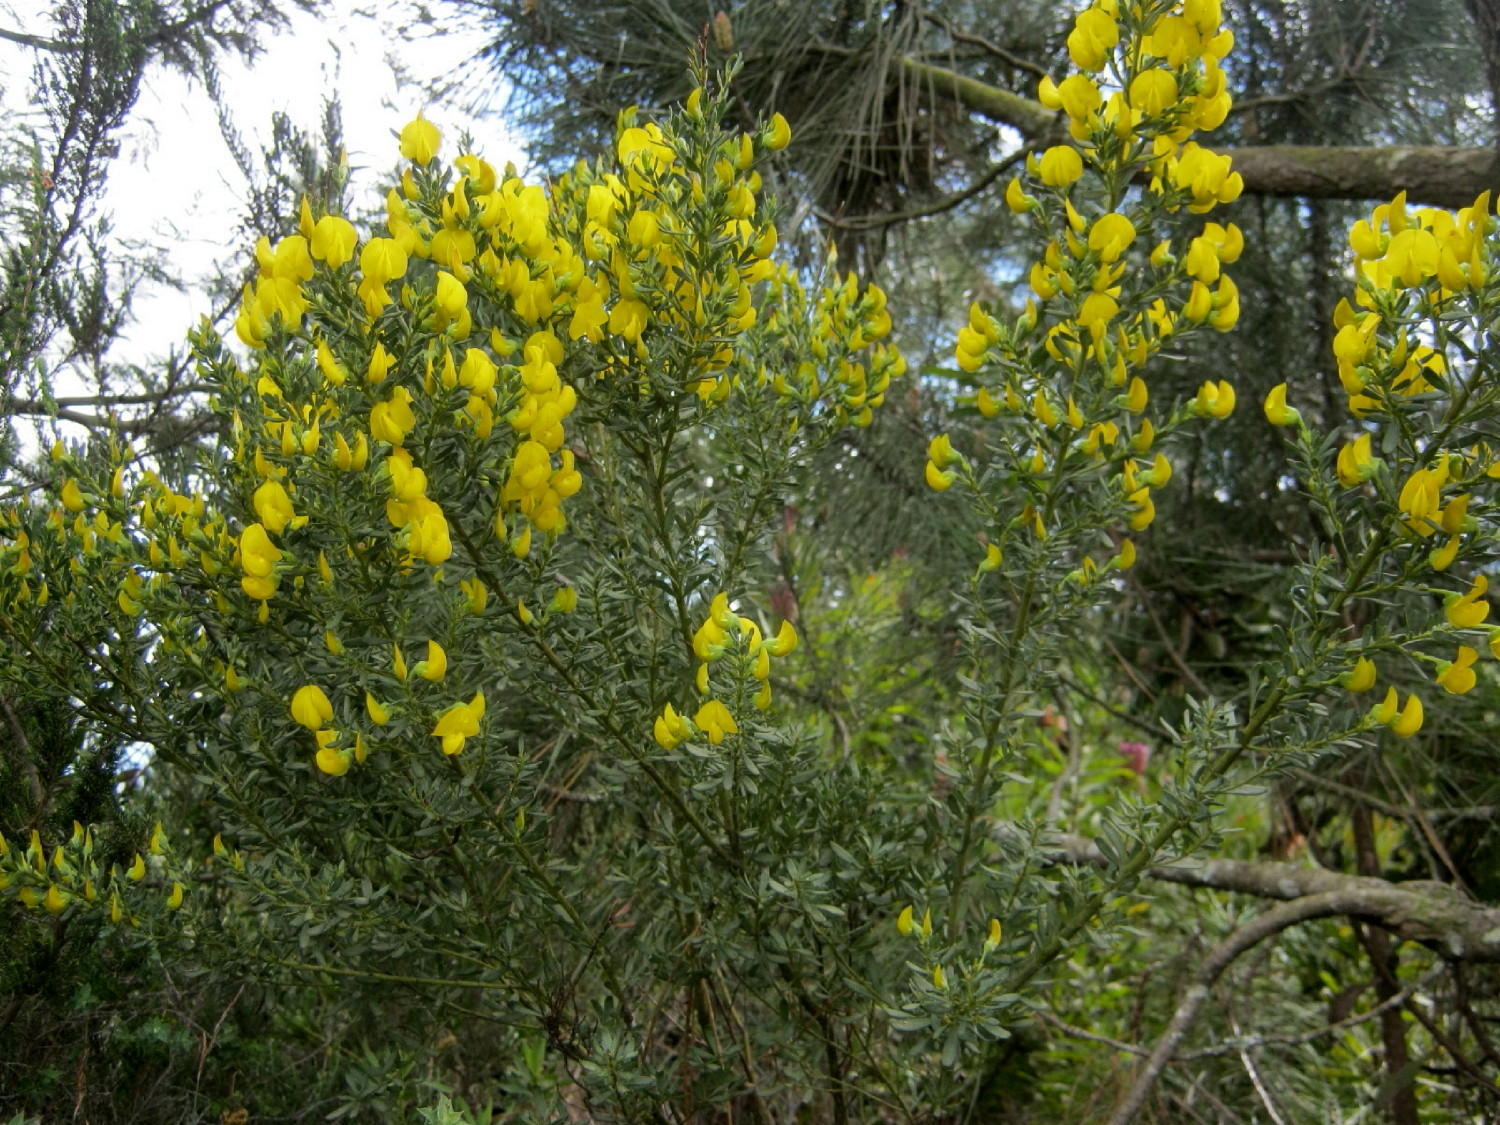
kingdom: Plantae
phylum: Tracheophyta
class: Magnoliopsida
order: Fabales
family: Fabaceae
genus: Cyclopia
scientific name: Cyclopia subternata
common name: Honeybush tea
